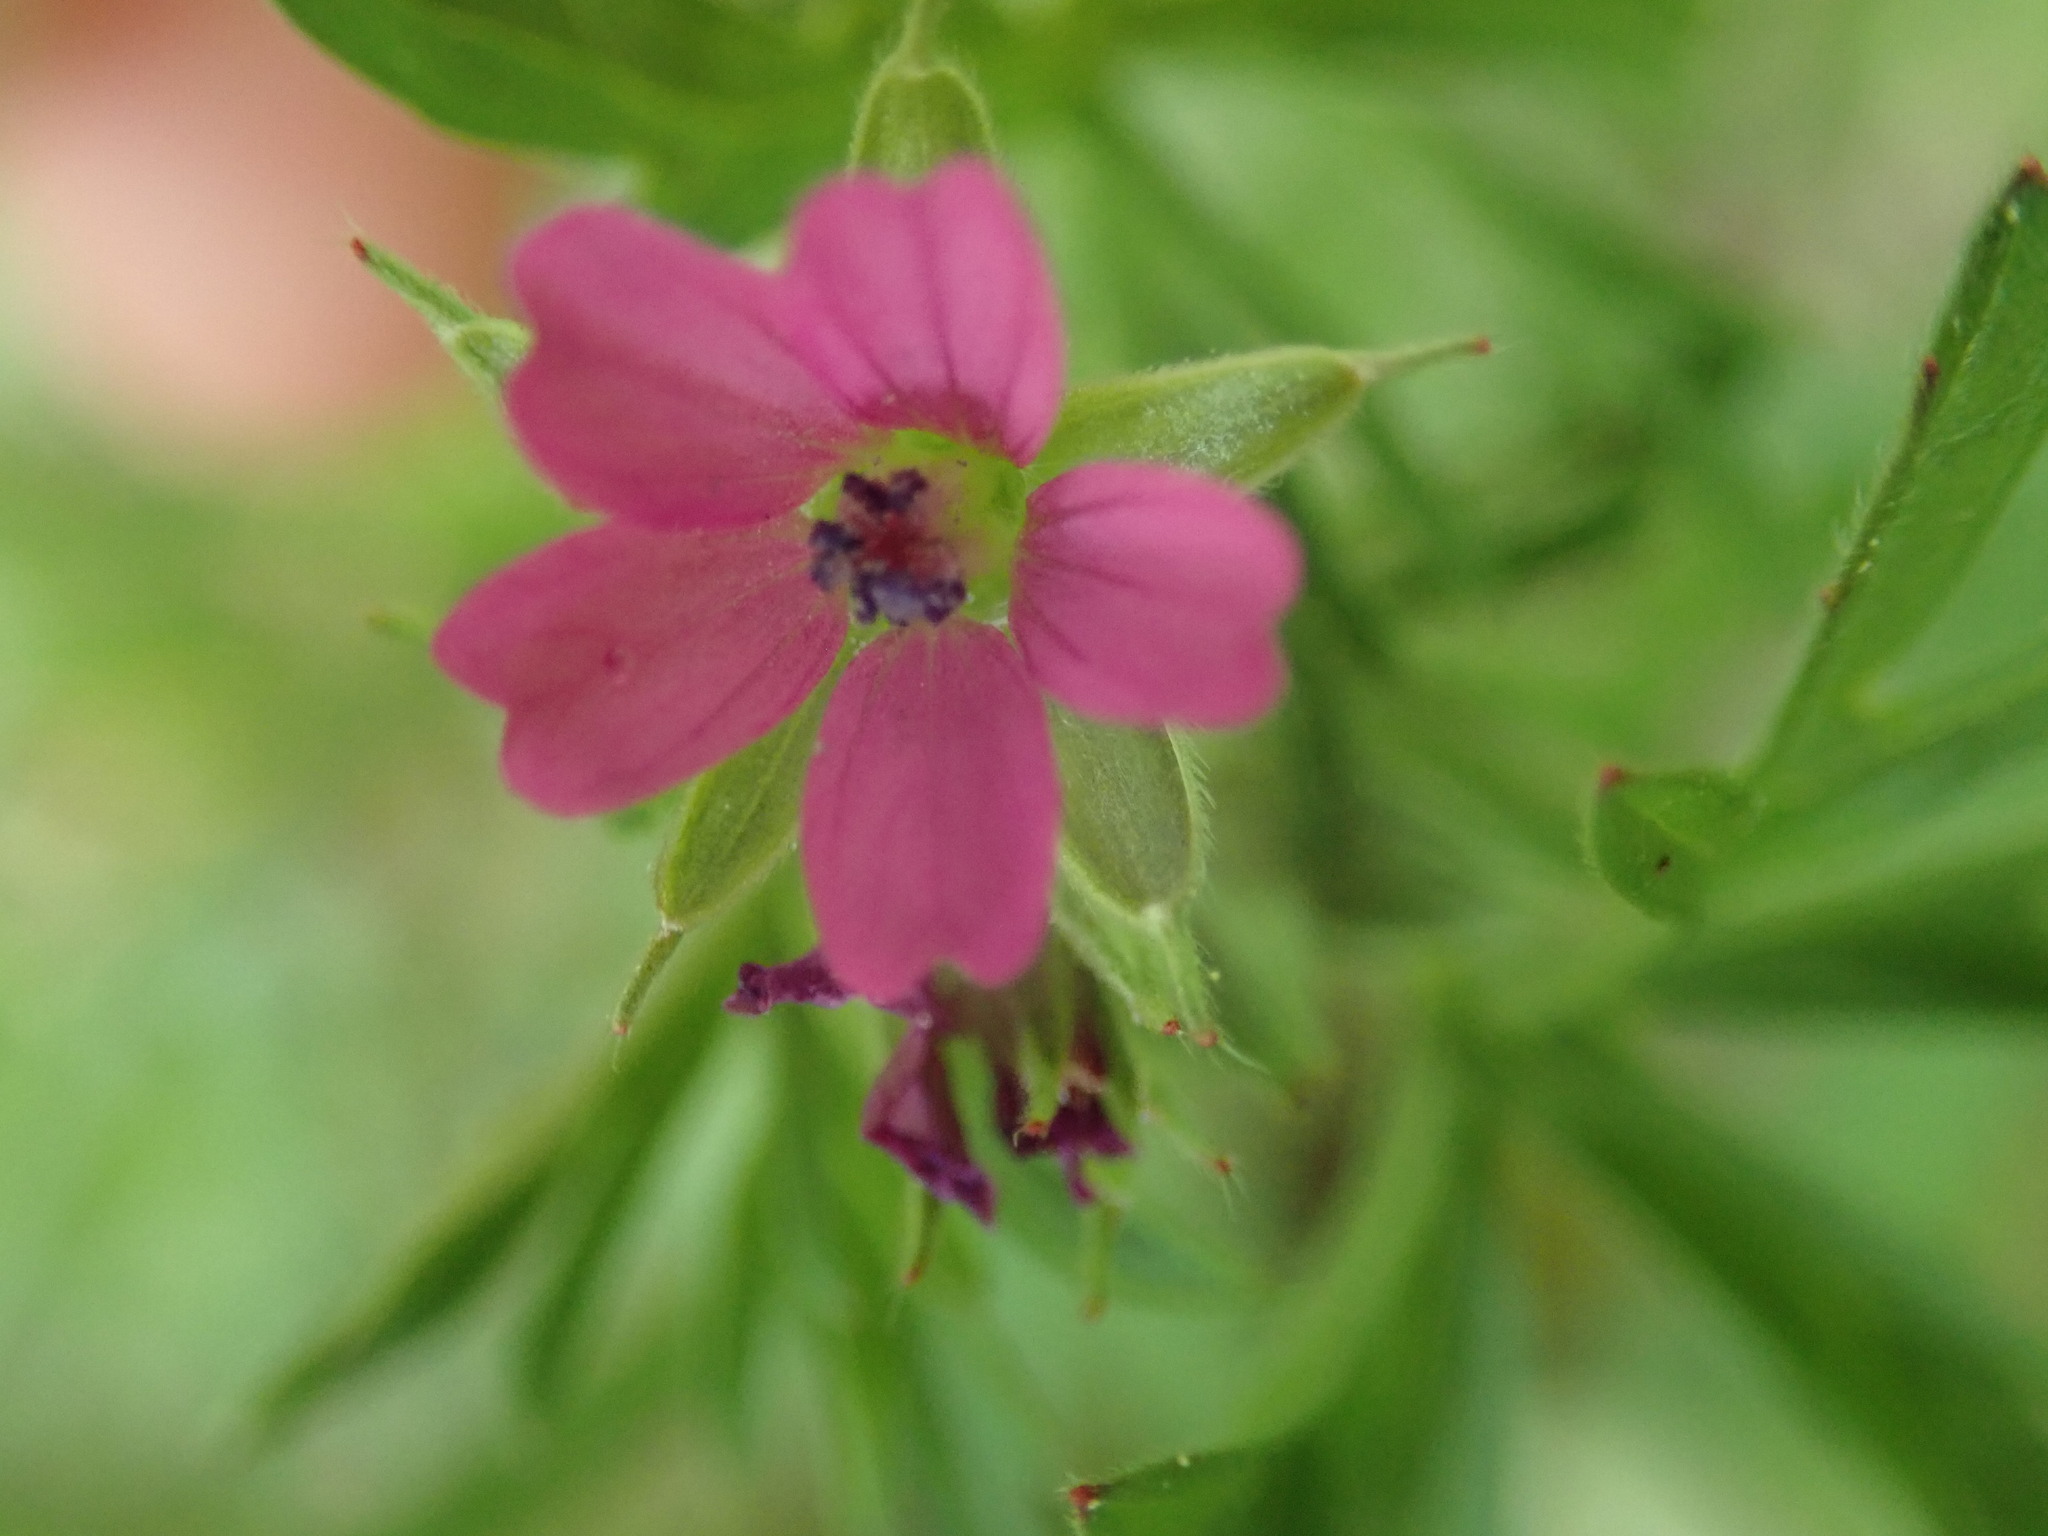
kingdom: Plantae
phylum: Tracheophyta
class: Magnoliopsida
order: Geraniales
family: Geraniaceae
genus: Geranium
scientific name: Geranium dissectum
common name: Cut-leaved crane's-bill
